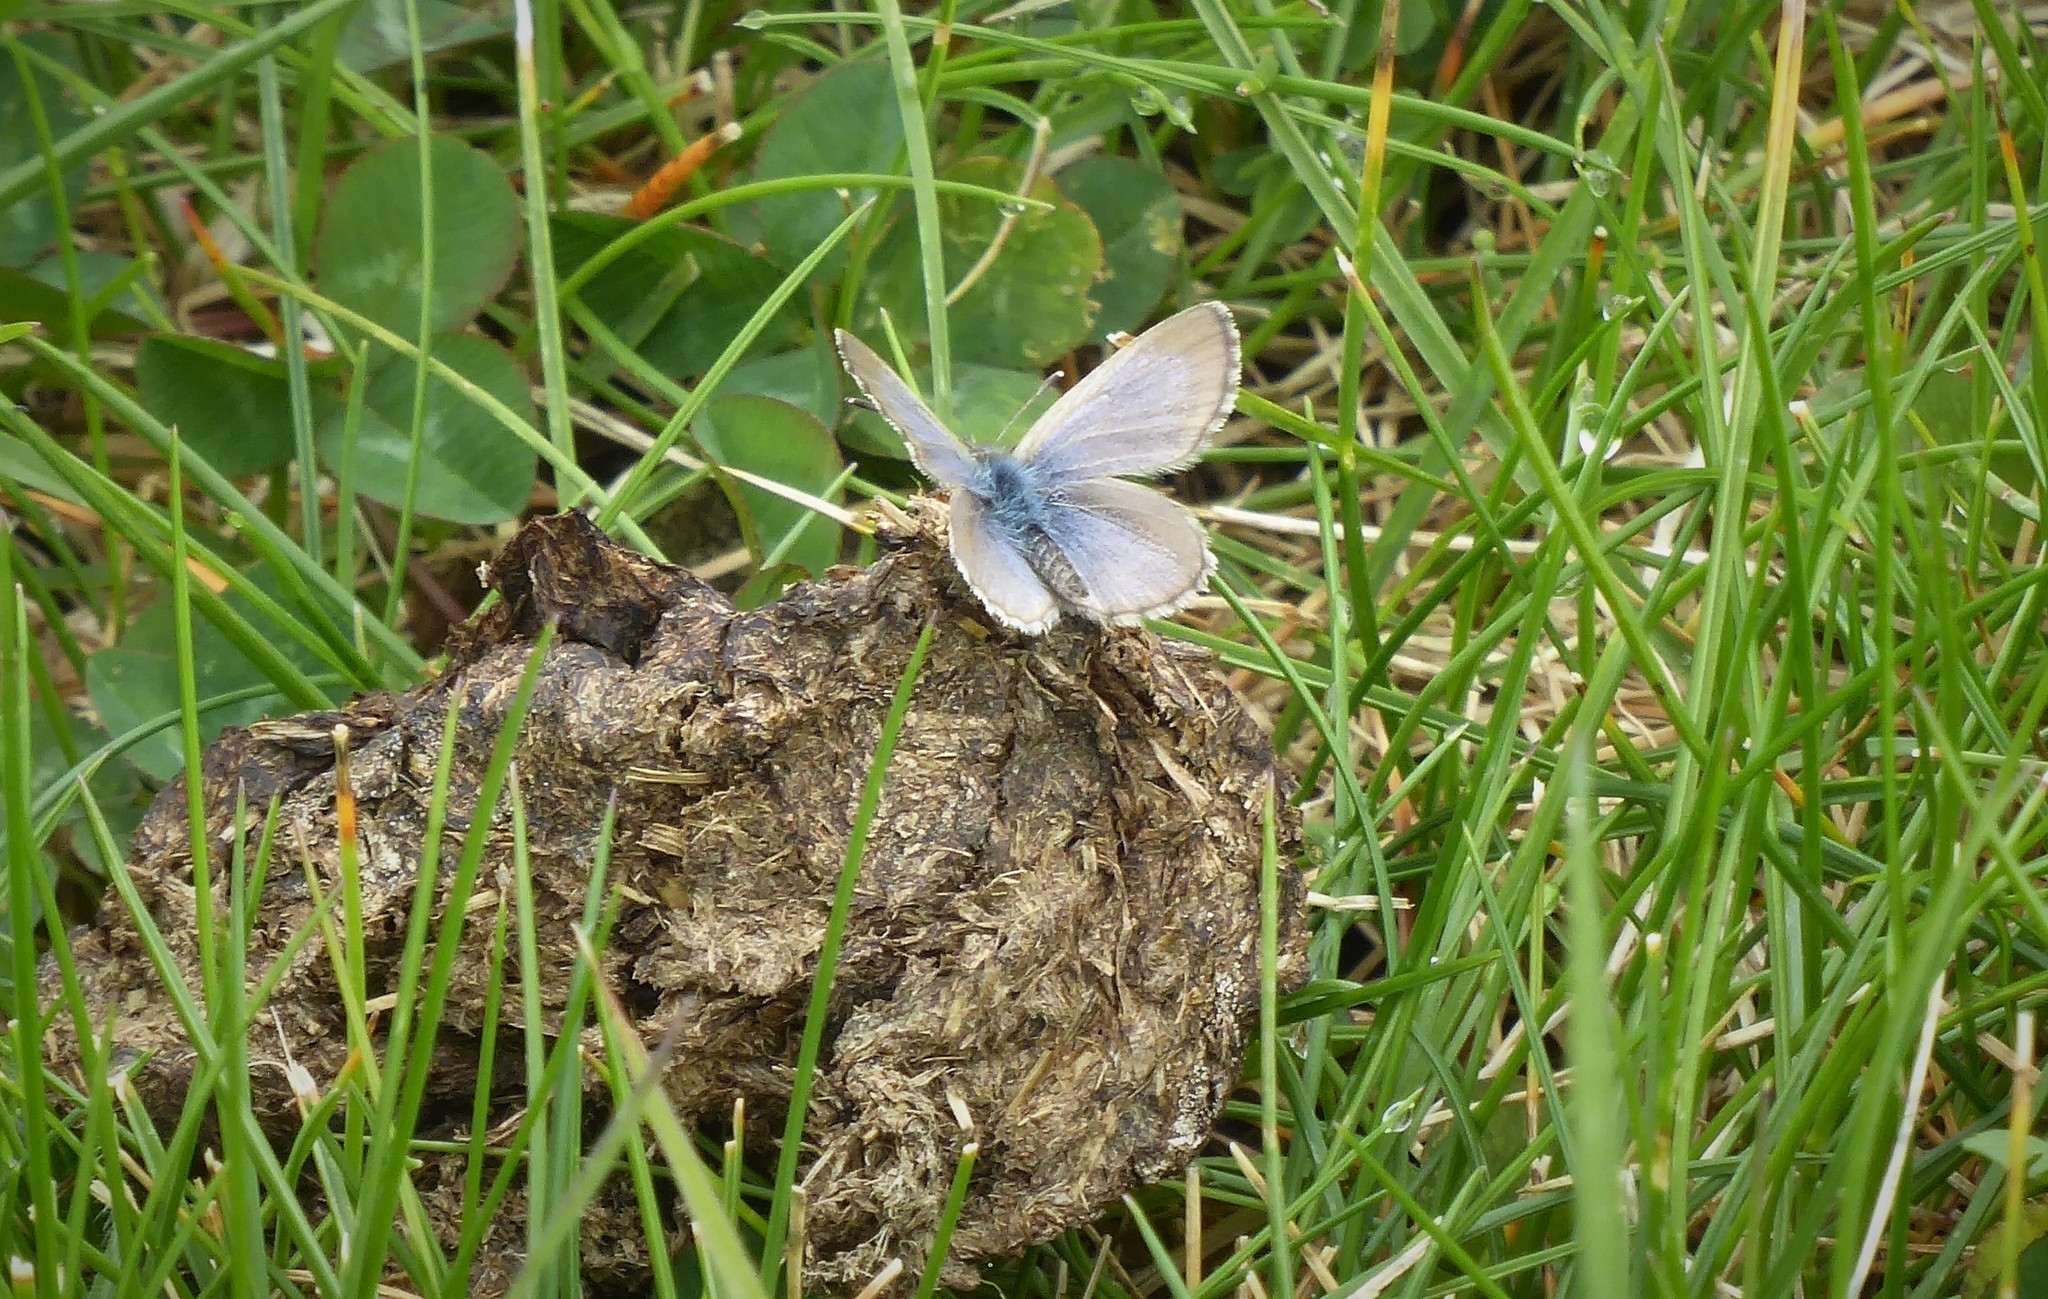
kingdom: Animalia
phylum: Arthropoda
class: Insecta
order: Lepidoptera
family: Lycaenidae
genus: Zizina
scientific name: Zizina oxleyi
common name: Southern blue
